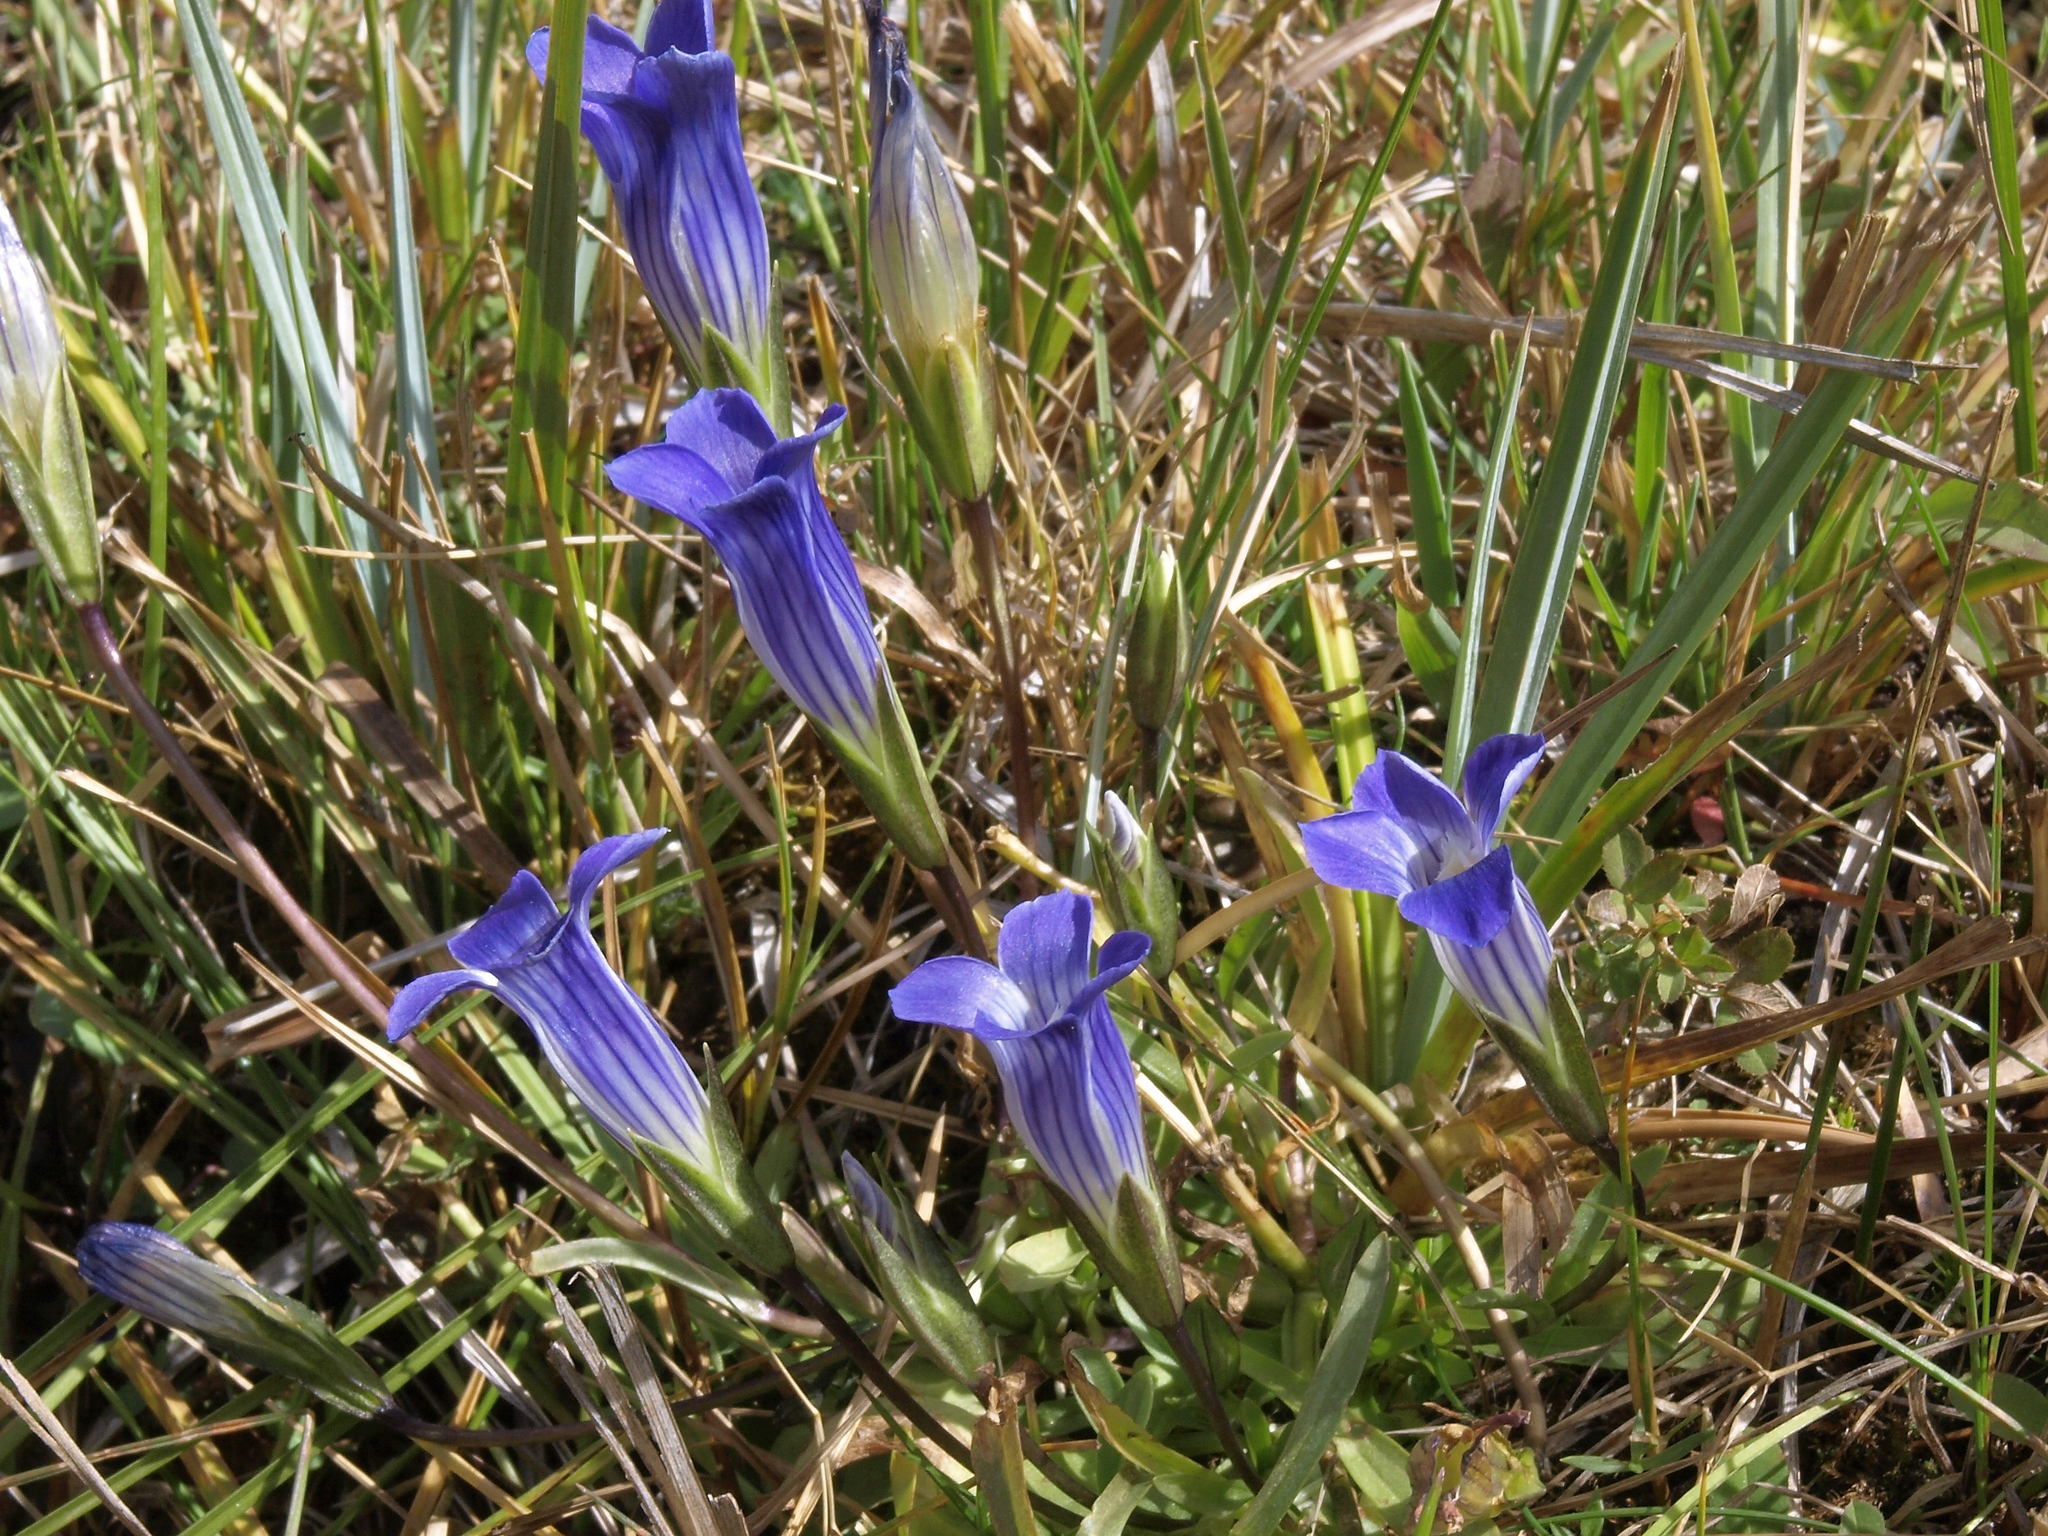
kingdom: Plantae
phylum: Tracheophyta
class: Magnoliopsida
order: Gentianales
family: Gentianaceae
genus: Gentianopsis
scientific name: Gentianopsis holopetala
